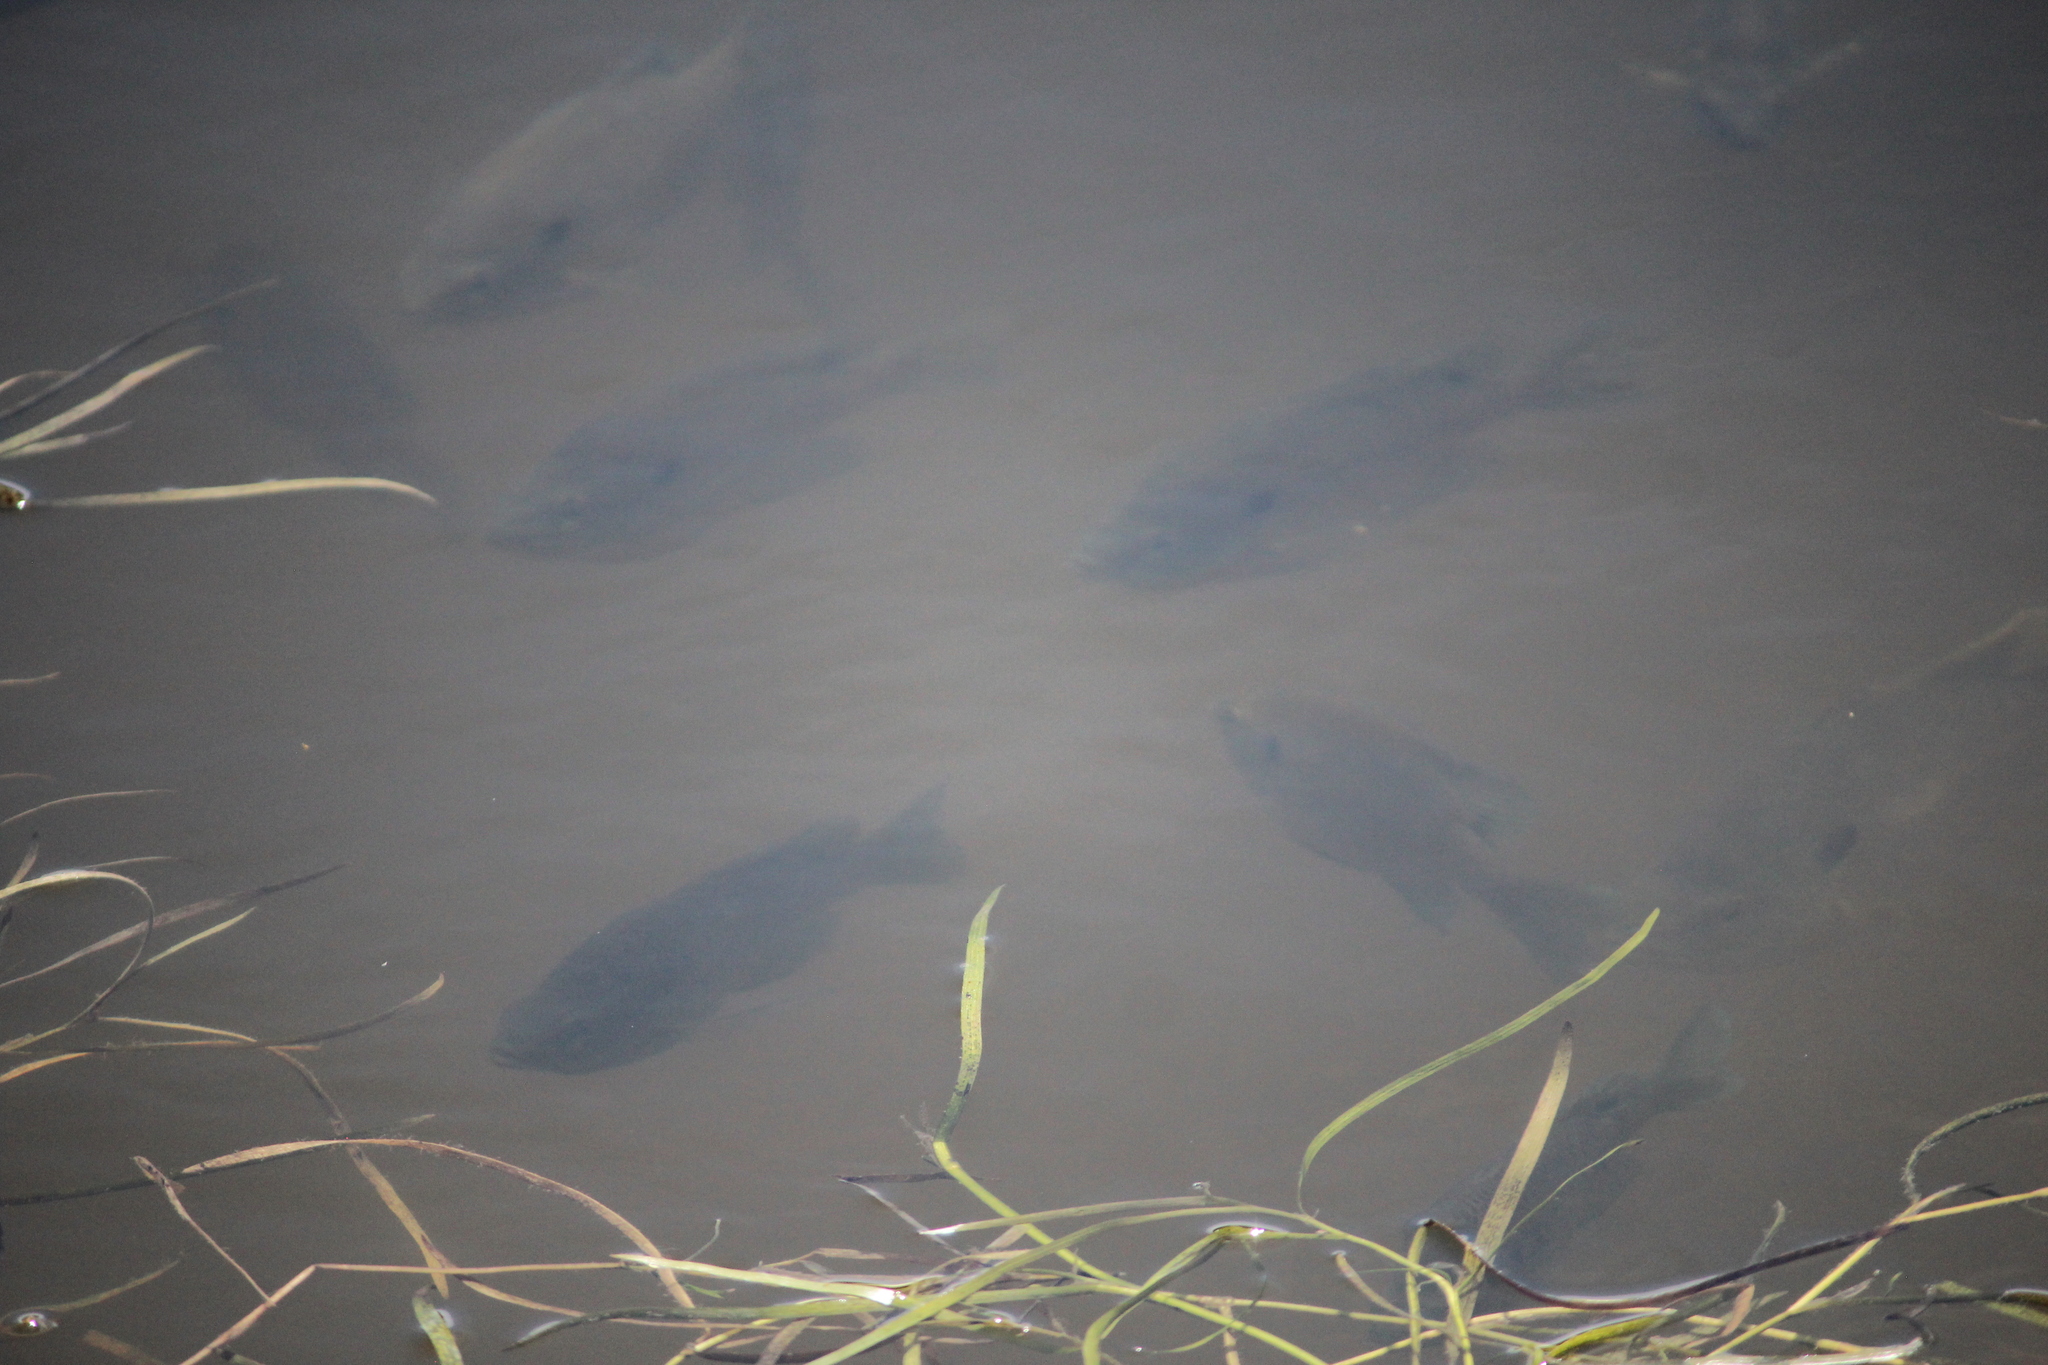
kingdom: Animalia
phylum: Chordata
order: Perciformes
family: Centrarchidae
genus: Lepomis
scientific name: Lepomis macrochirus
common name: Bluegill
